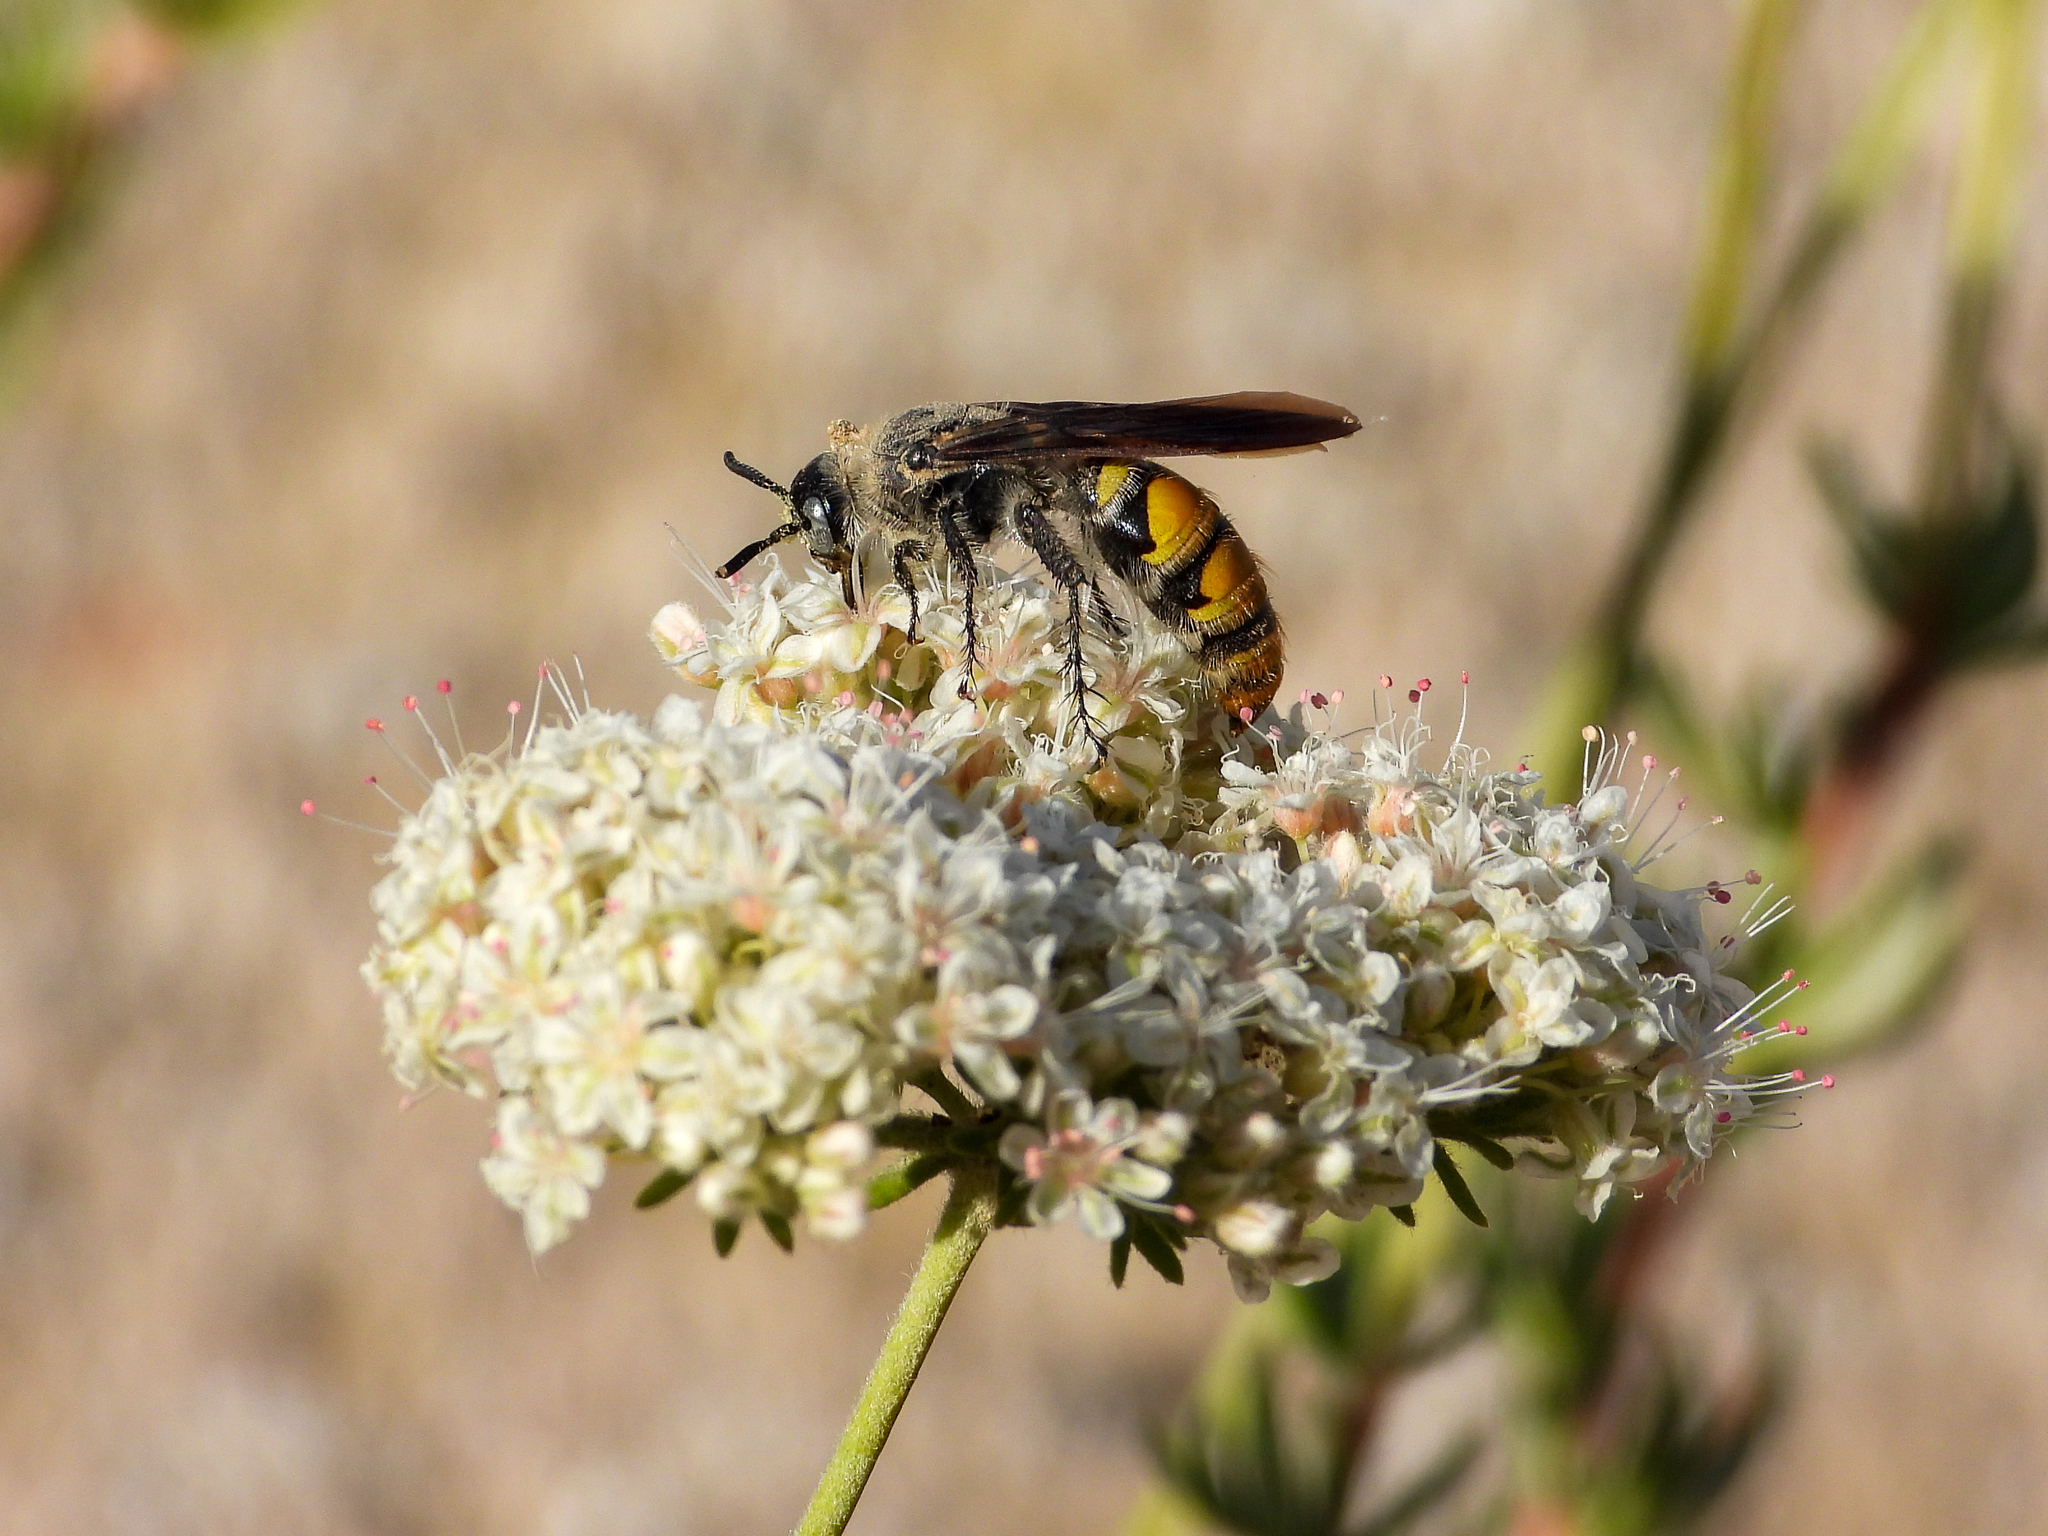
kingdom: Animalia
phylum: Arthropoda
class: Insecta
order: Hymenoptera
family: Scoliidae
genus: Dielis
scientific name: Dielis tolteca
